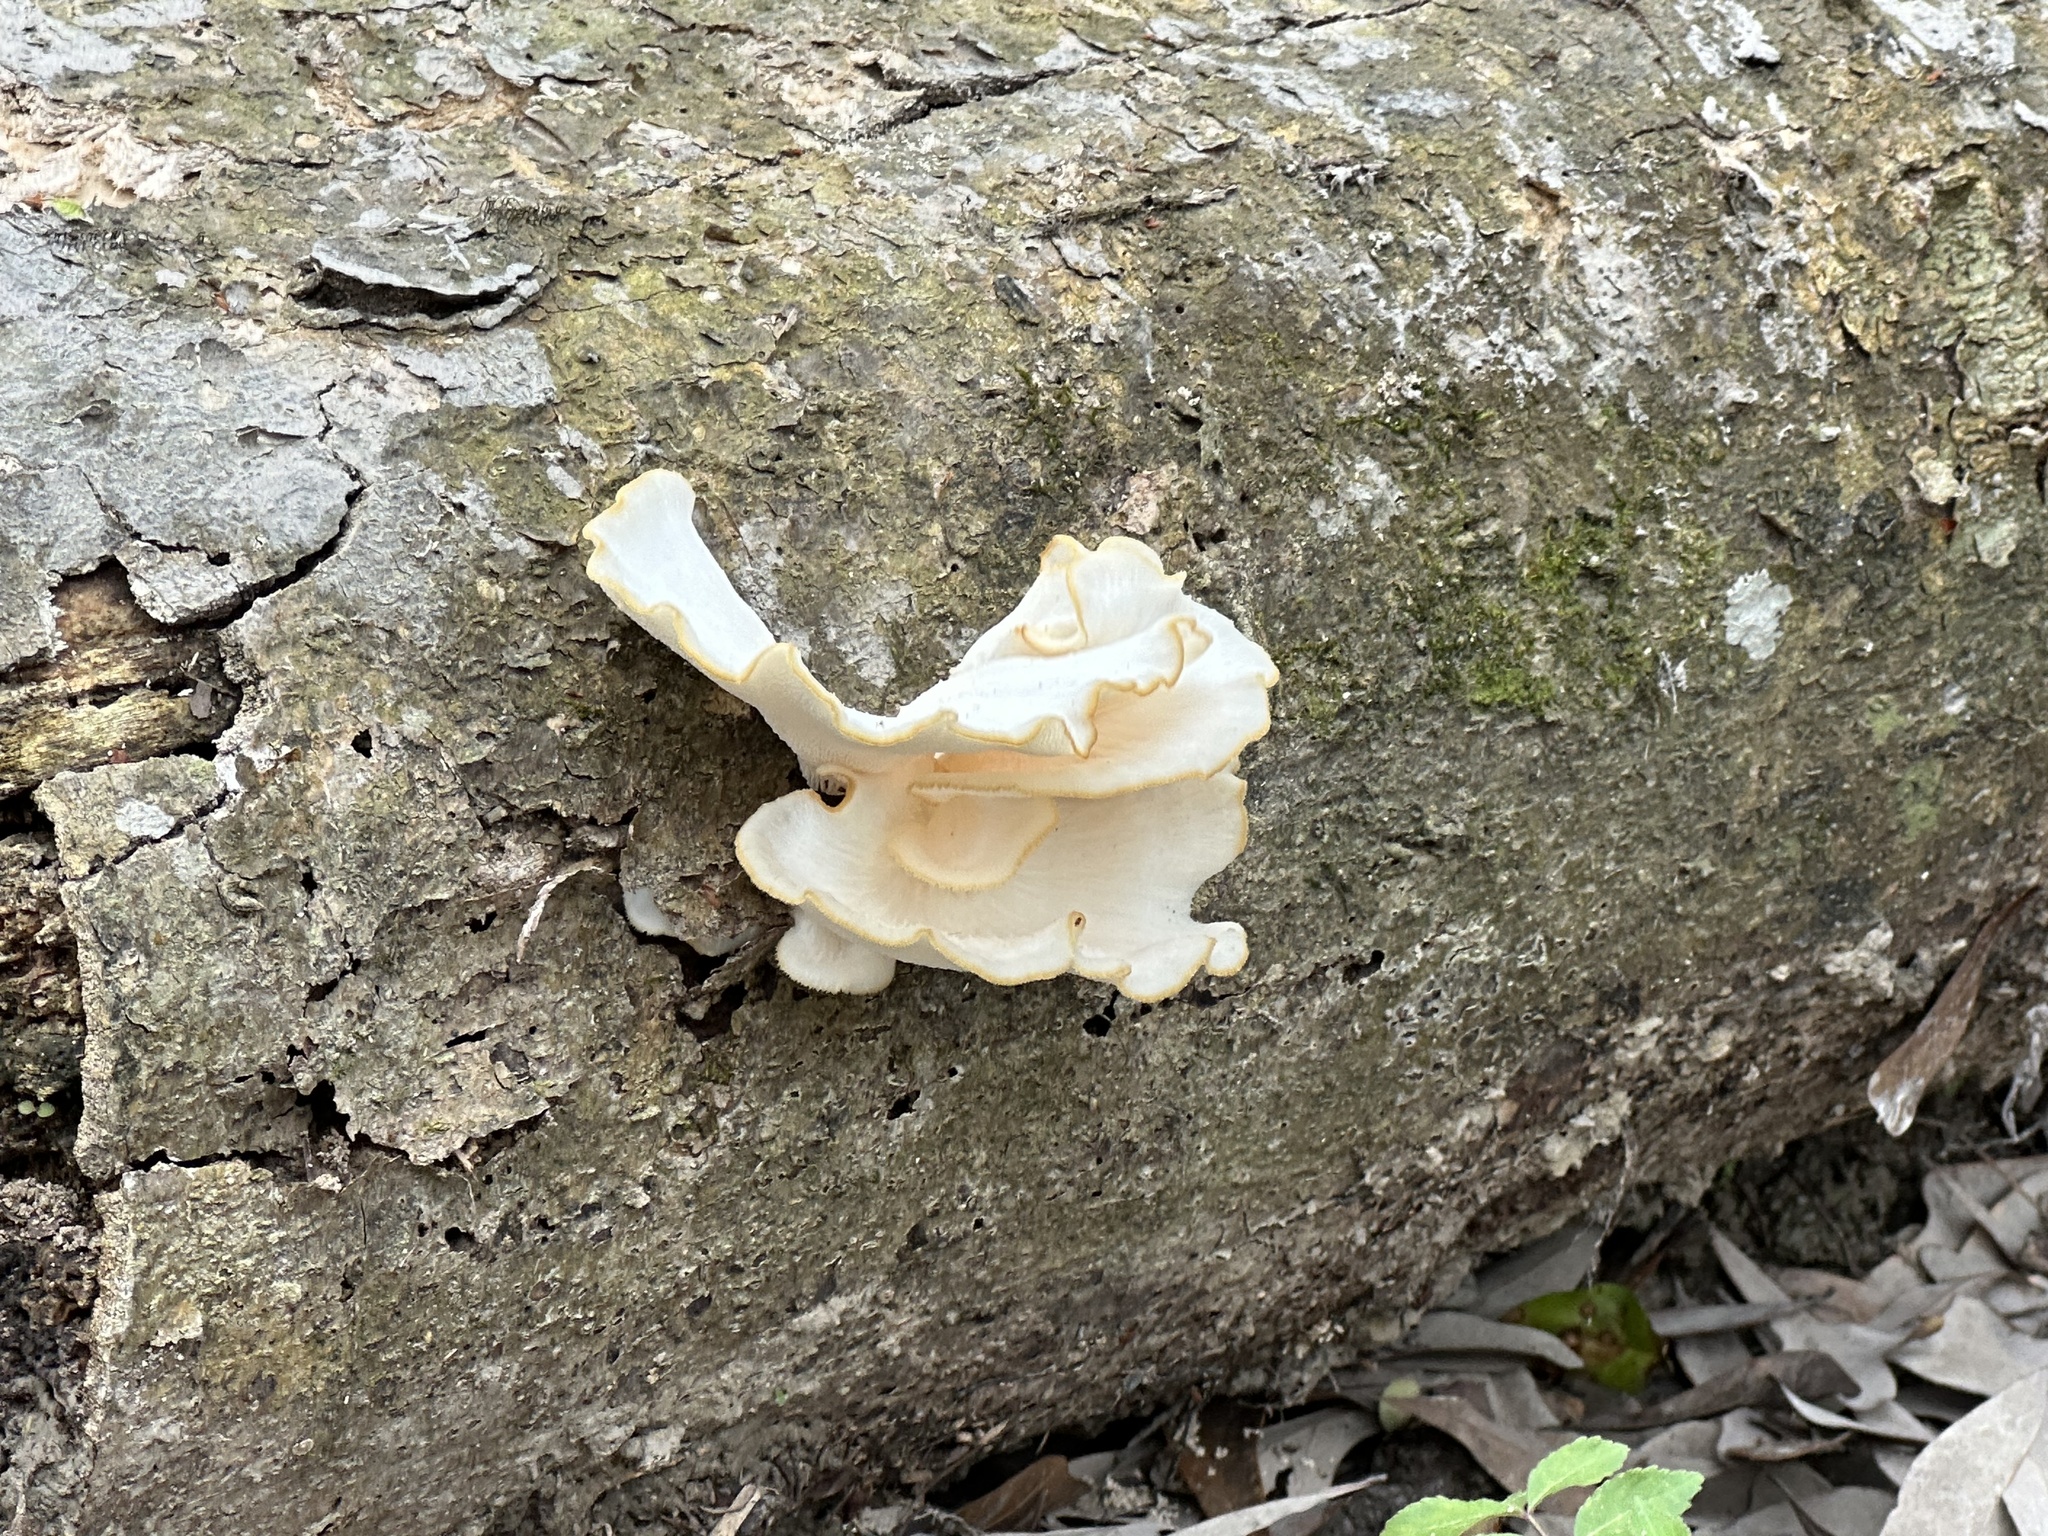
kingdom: Fungi
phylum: Basidiomycota
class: Agaricomycetes
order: Polyporales
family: Polyporaceae
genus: Favolus
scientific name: Favolus tenuiculus
